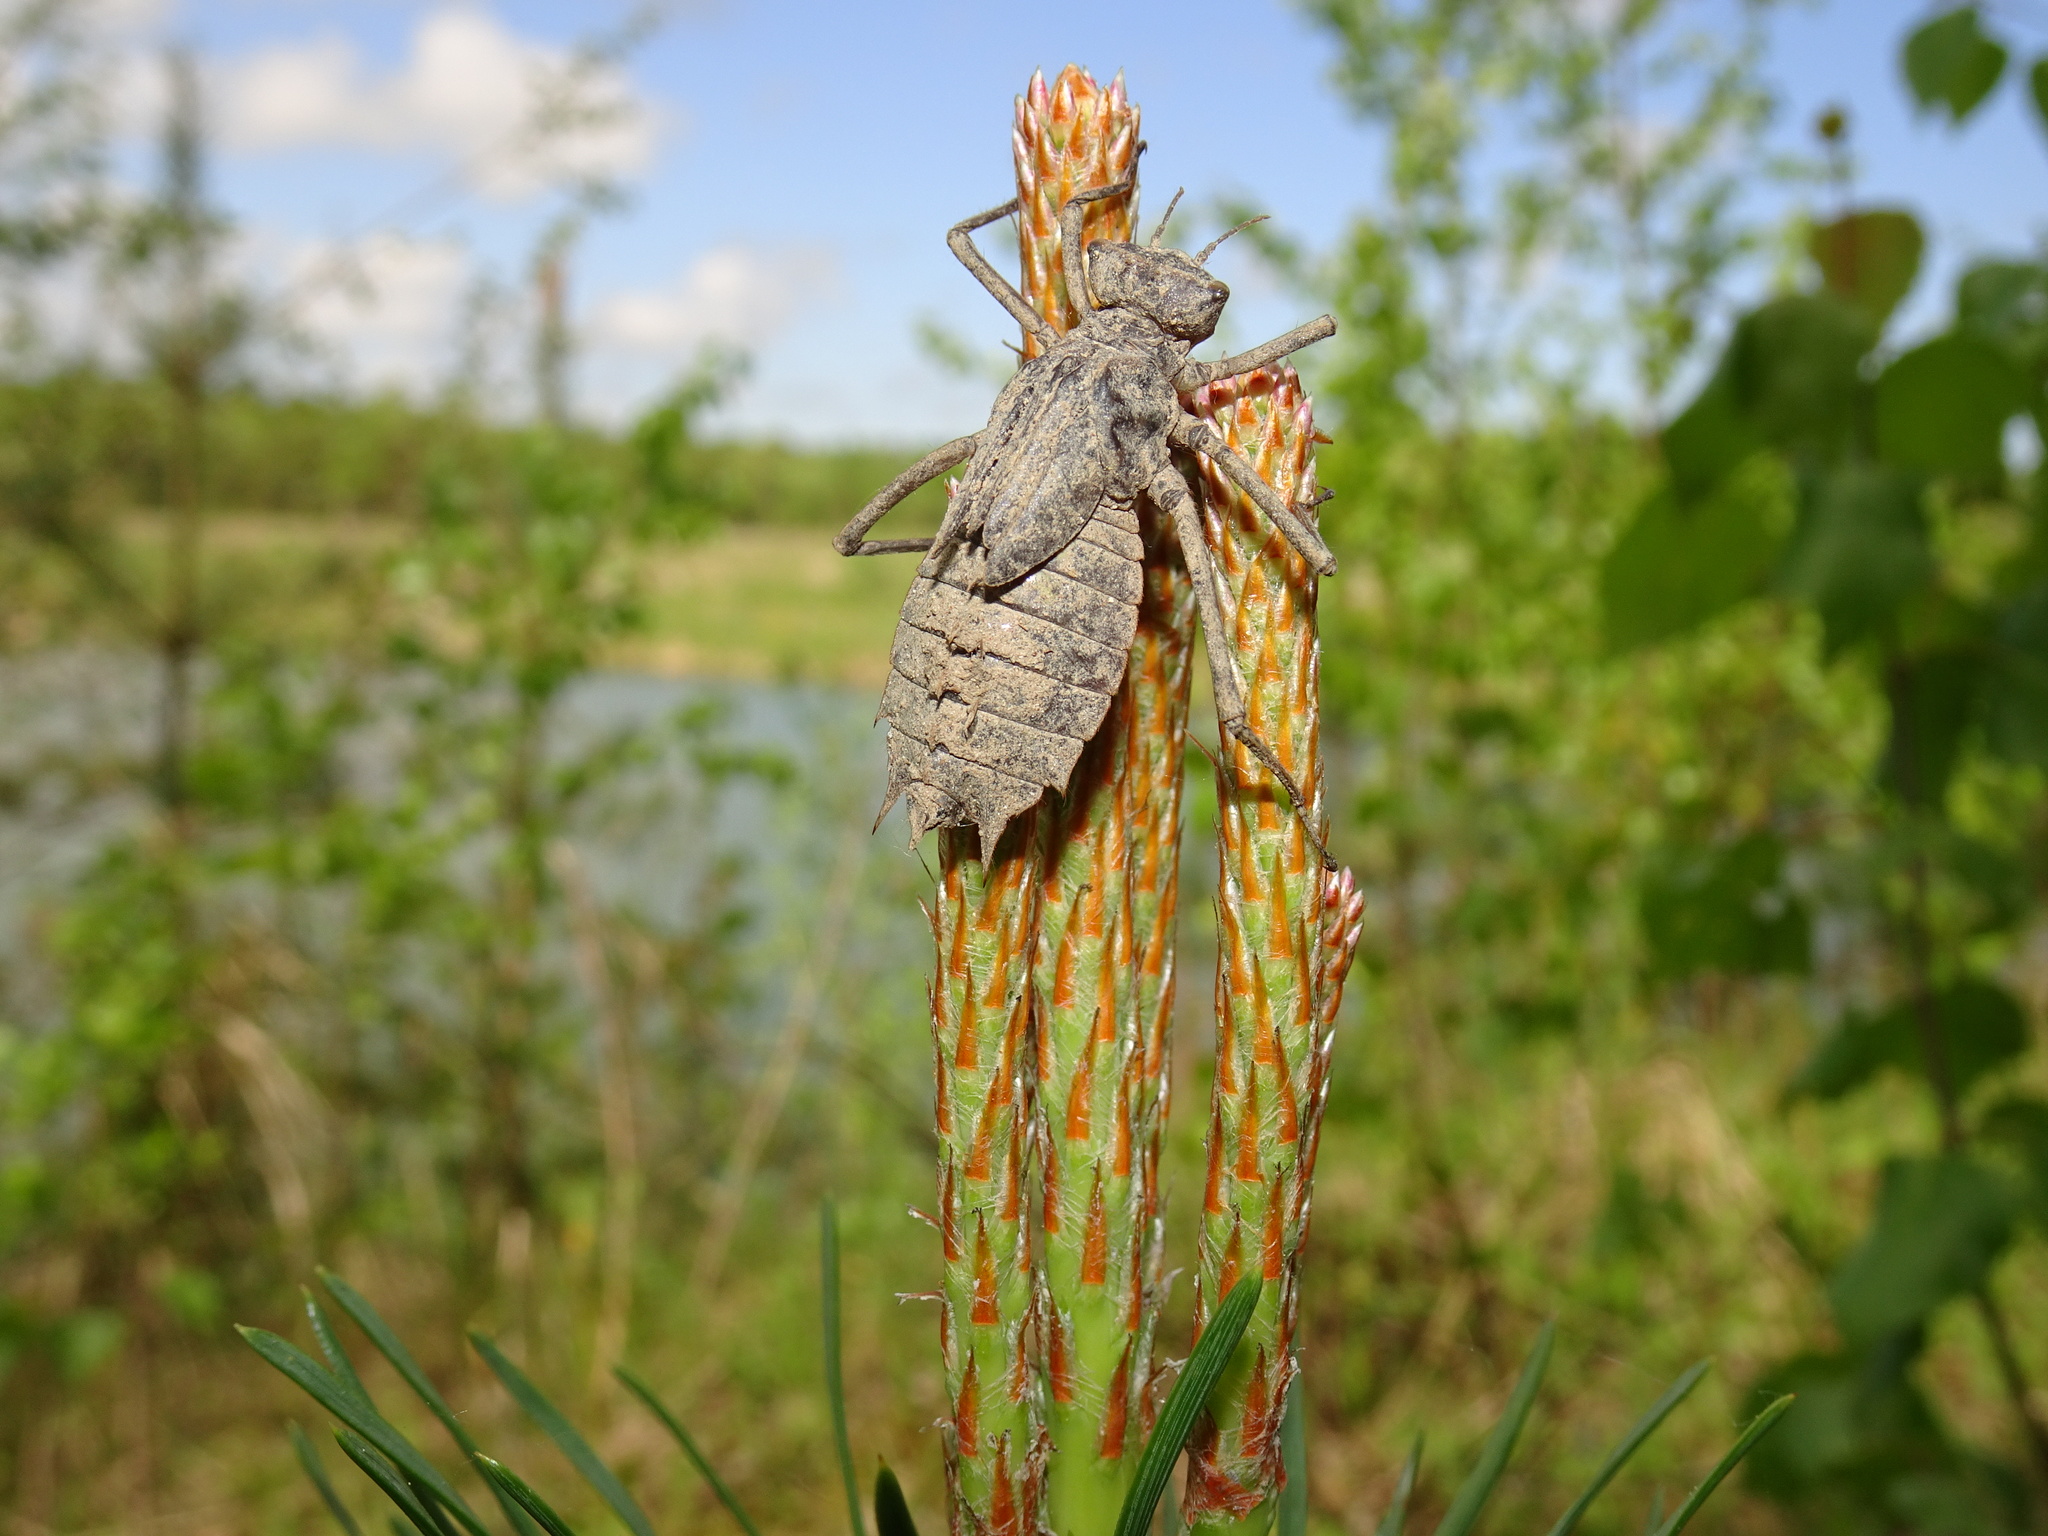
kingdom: Animalia
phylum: Arthropoda
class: Insecta
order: Odonata
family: Corduliidae
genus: Epitheca
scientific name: Epitheca bimaculata
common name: Eurasian baskettail
